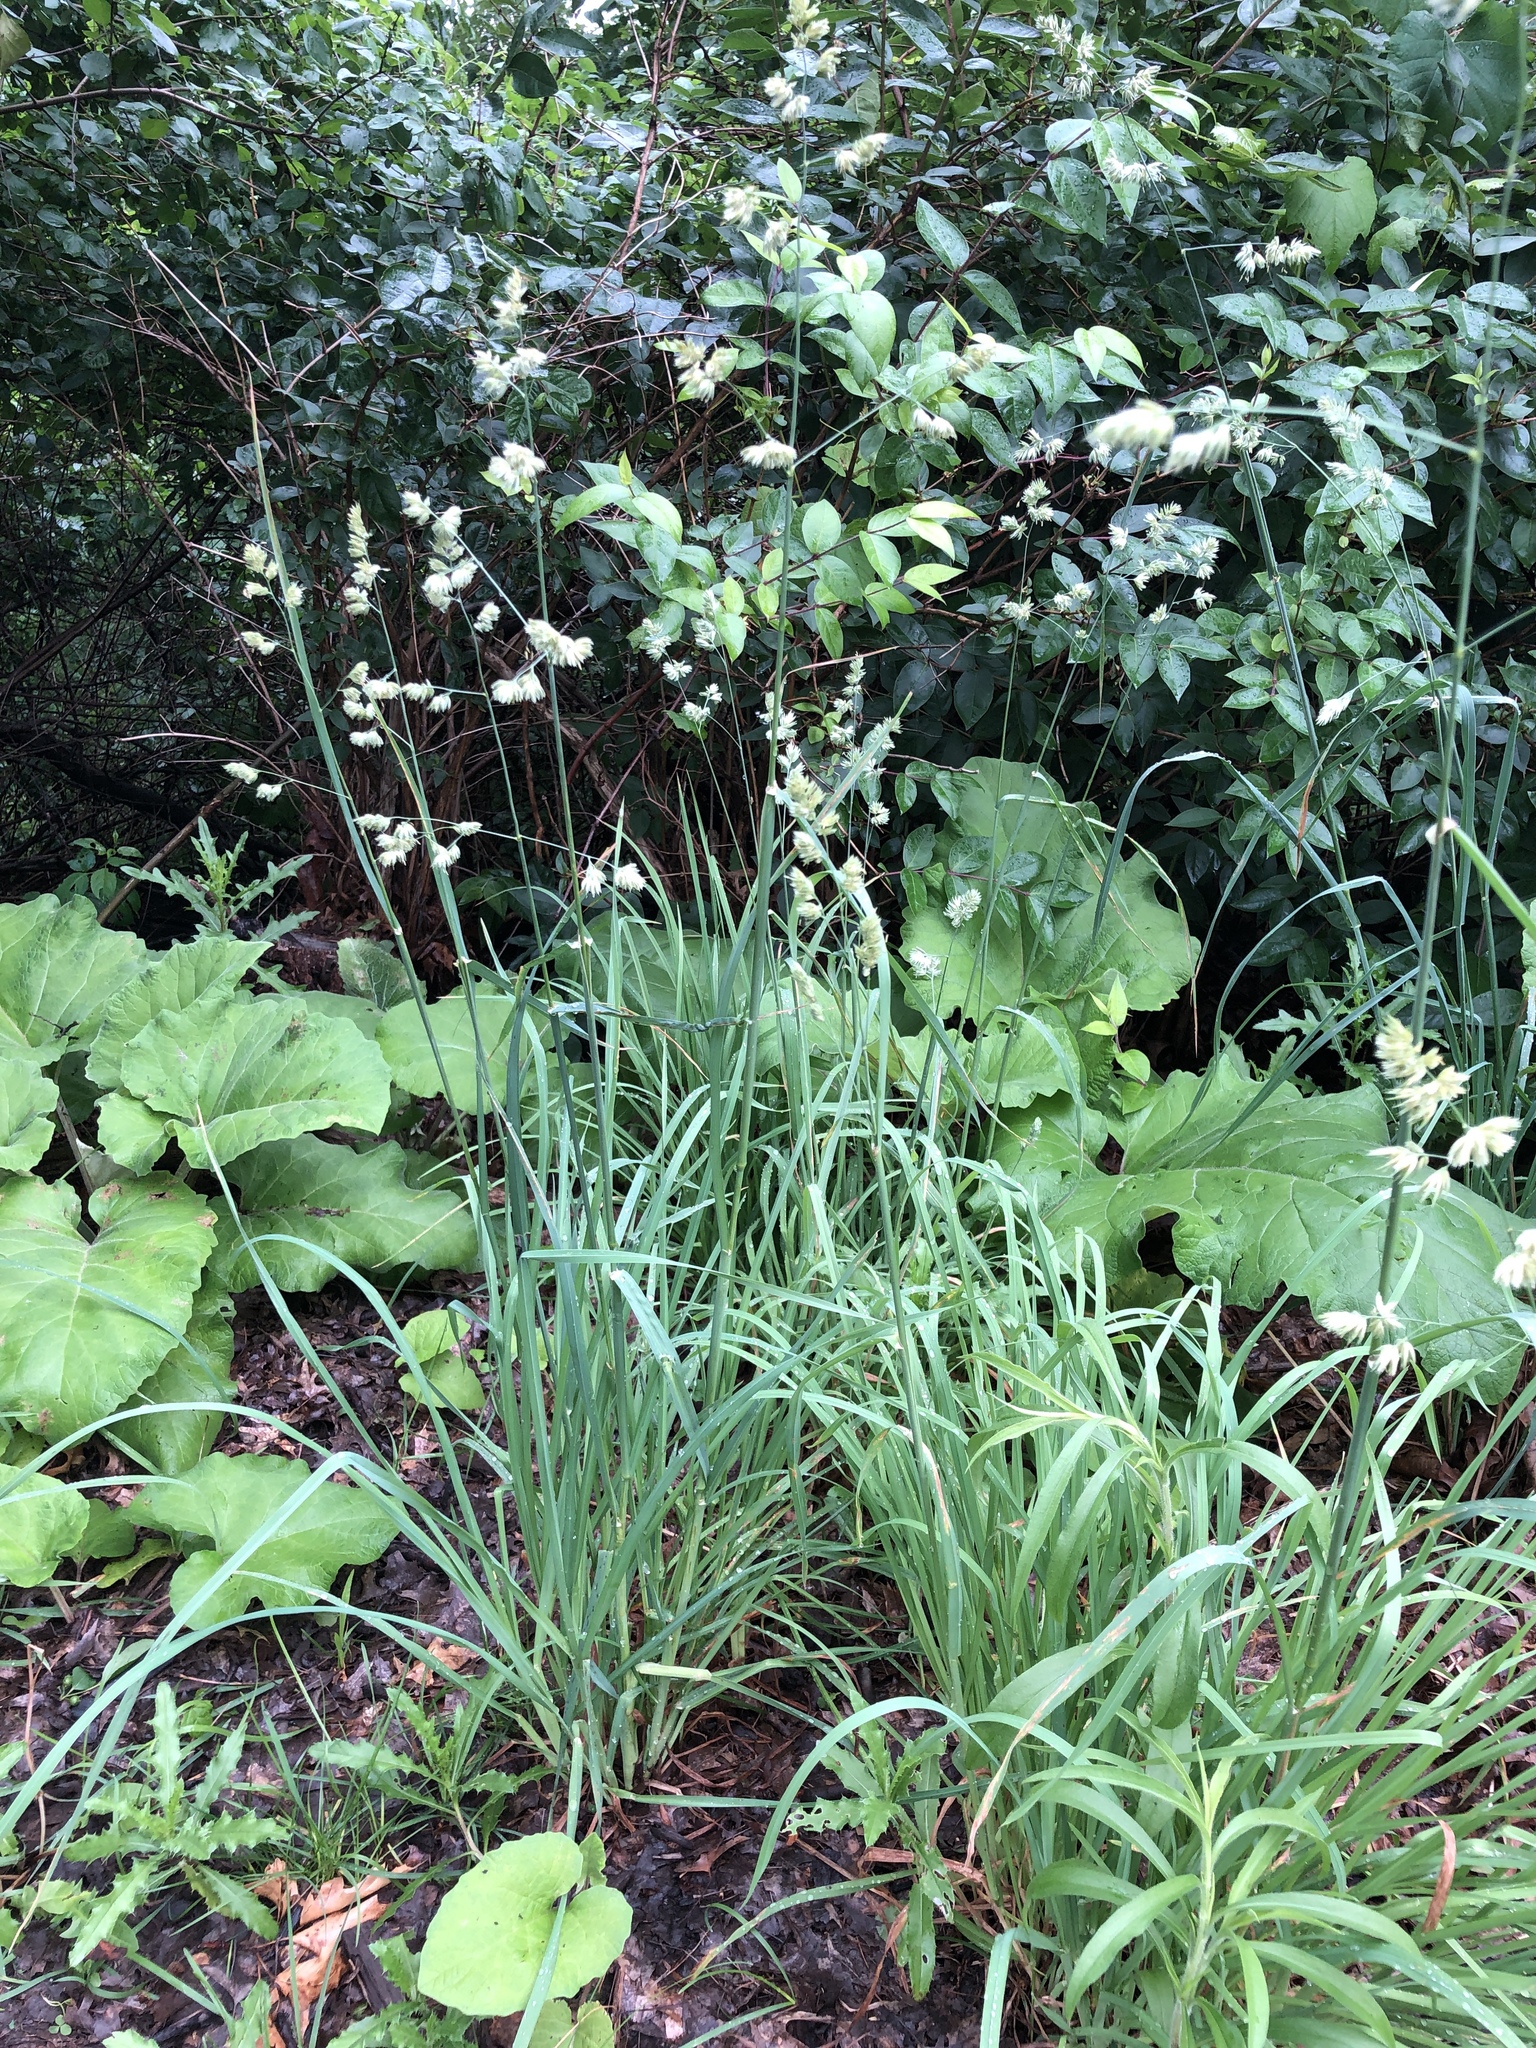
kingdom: Plantae
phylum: Tracheophyta
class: Liliopsida
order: Poales
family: Poaceae
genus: Dactylis
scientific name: Dactylis glomerata
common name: Orchardgrass
